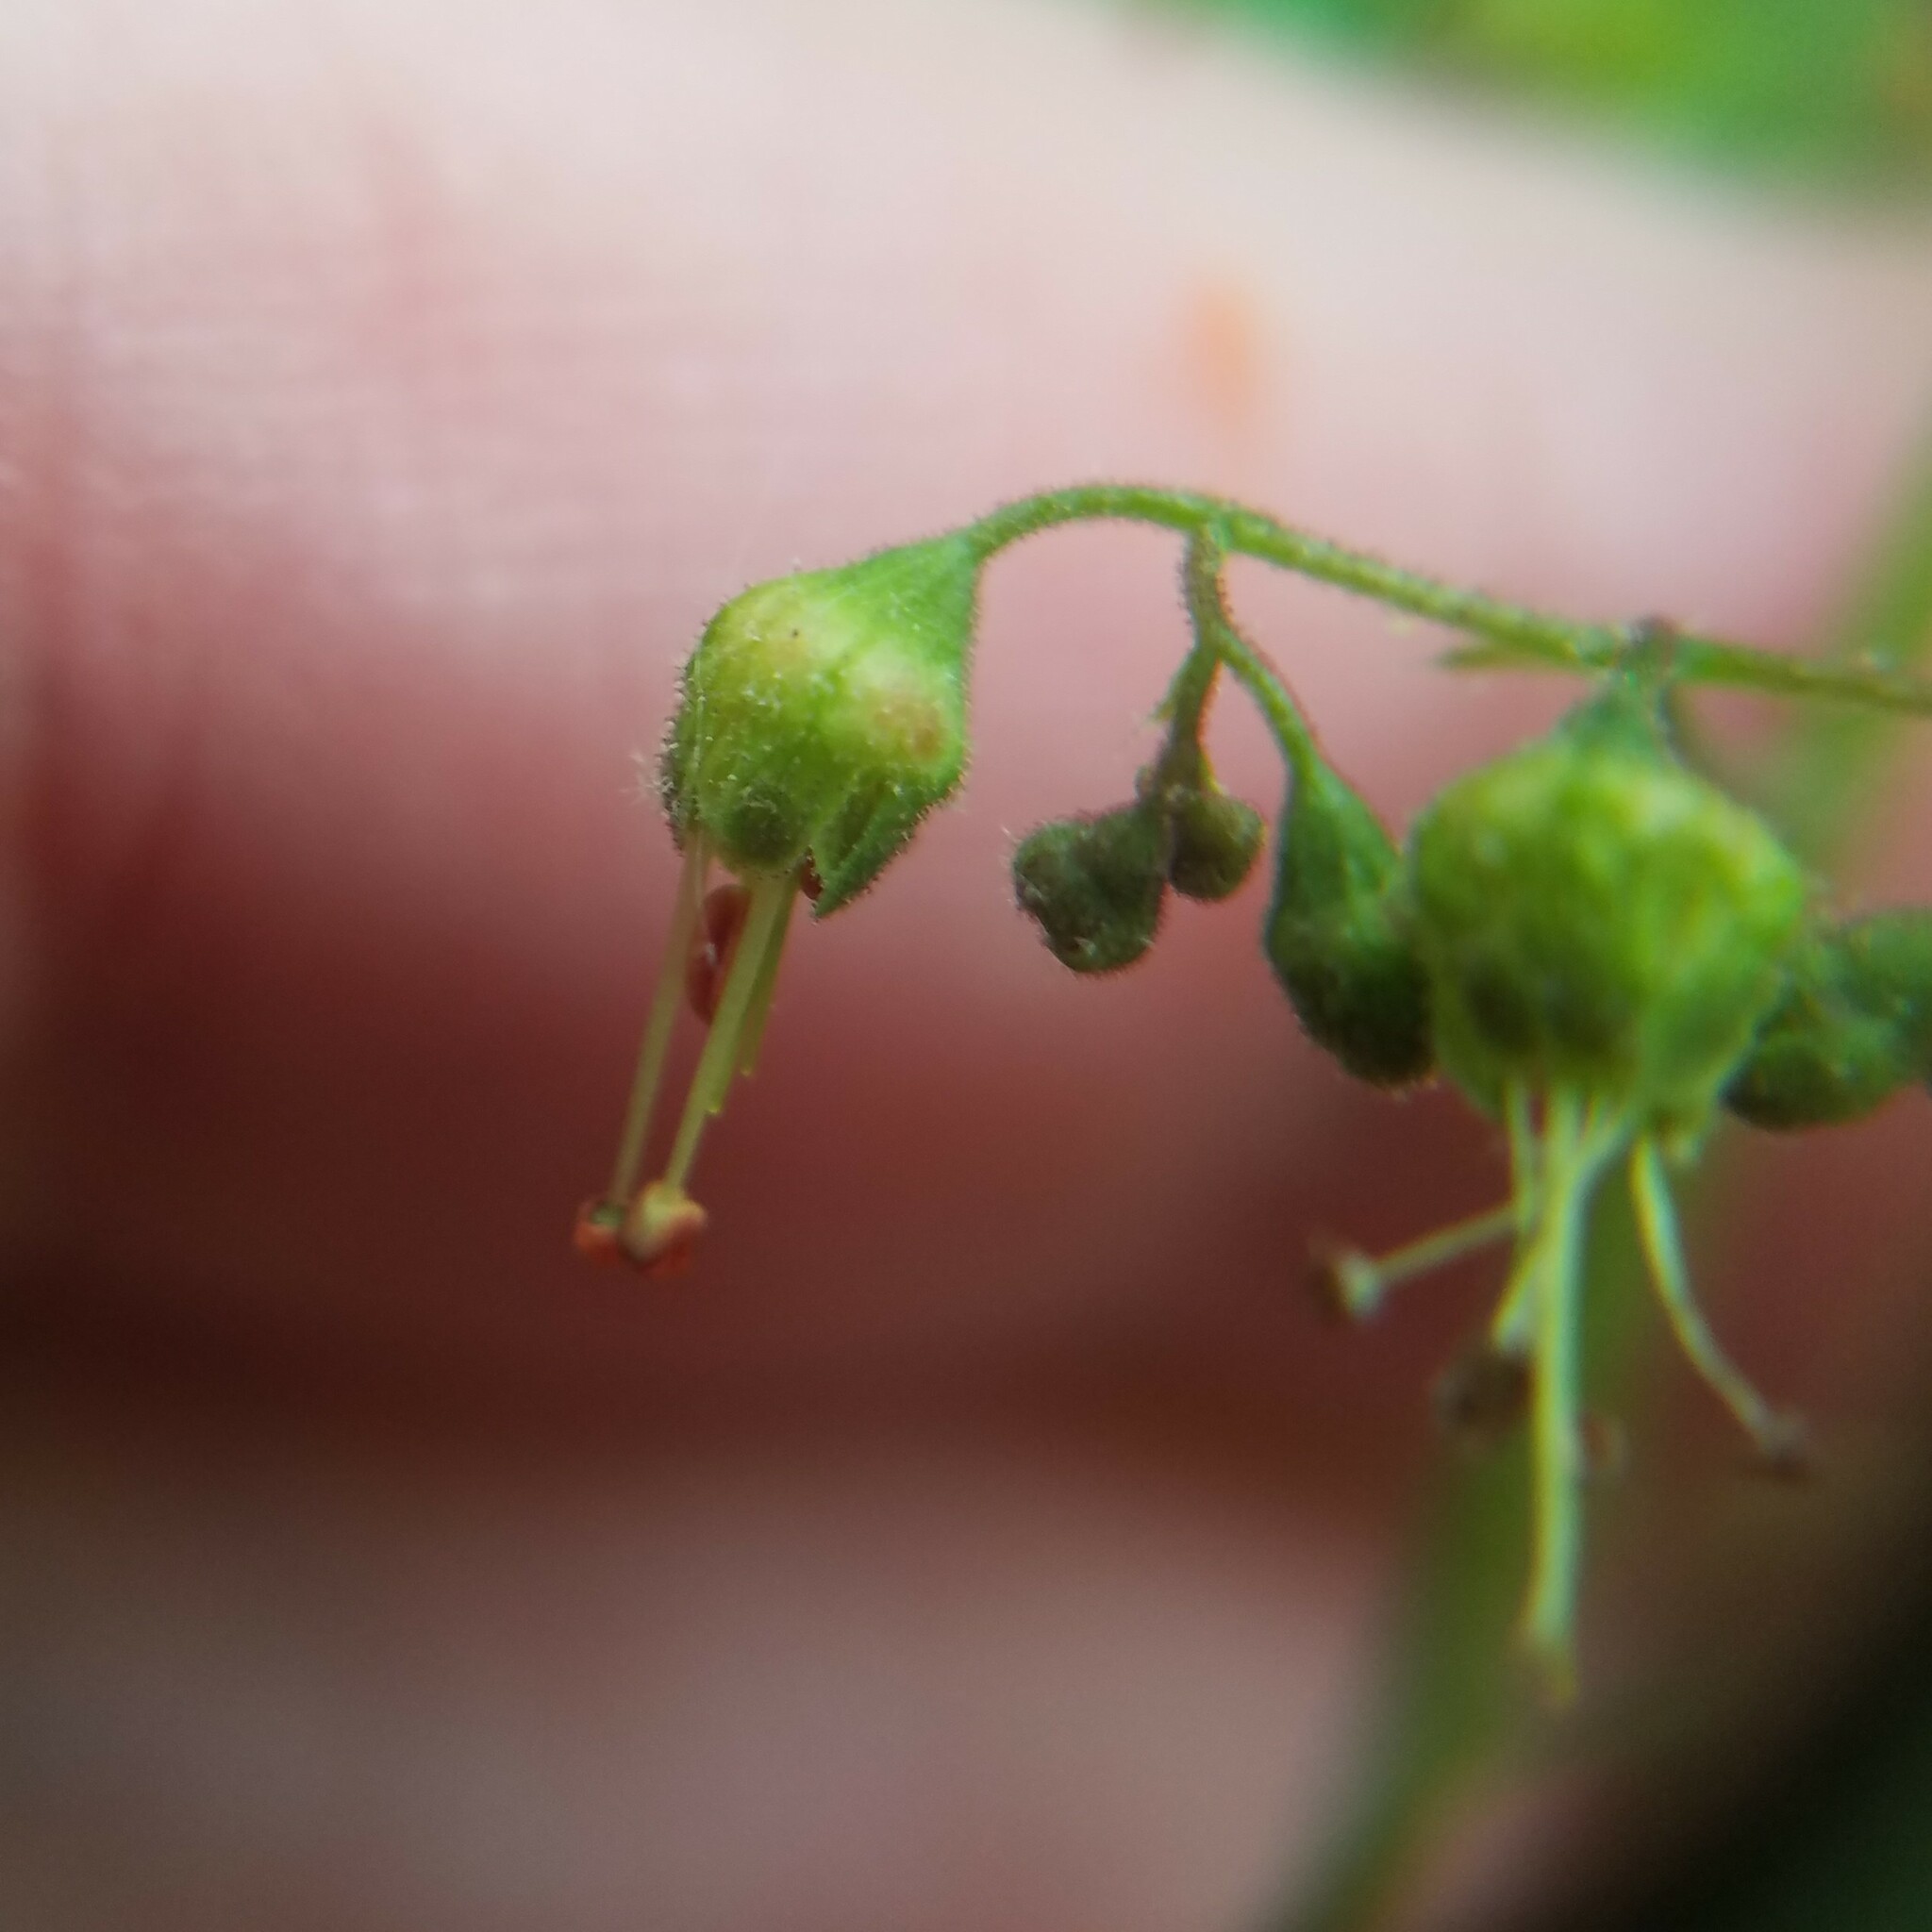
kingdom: Plantae
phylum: Tracheophyta
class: Magnoliopsida
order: Saxifragales
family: Saxifragaceae
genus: Heuchera
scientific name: Heuchera americana
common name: Alumroot
